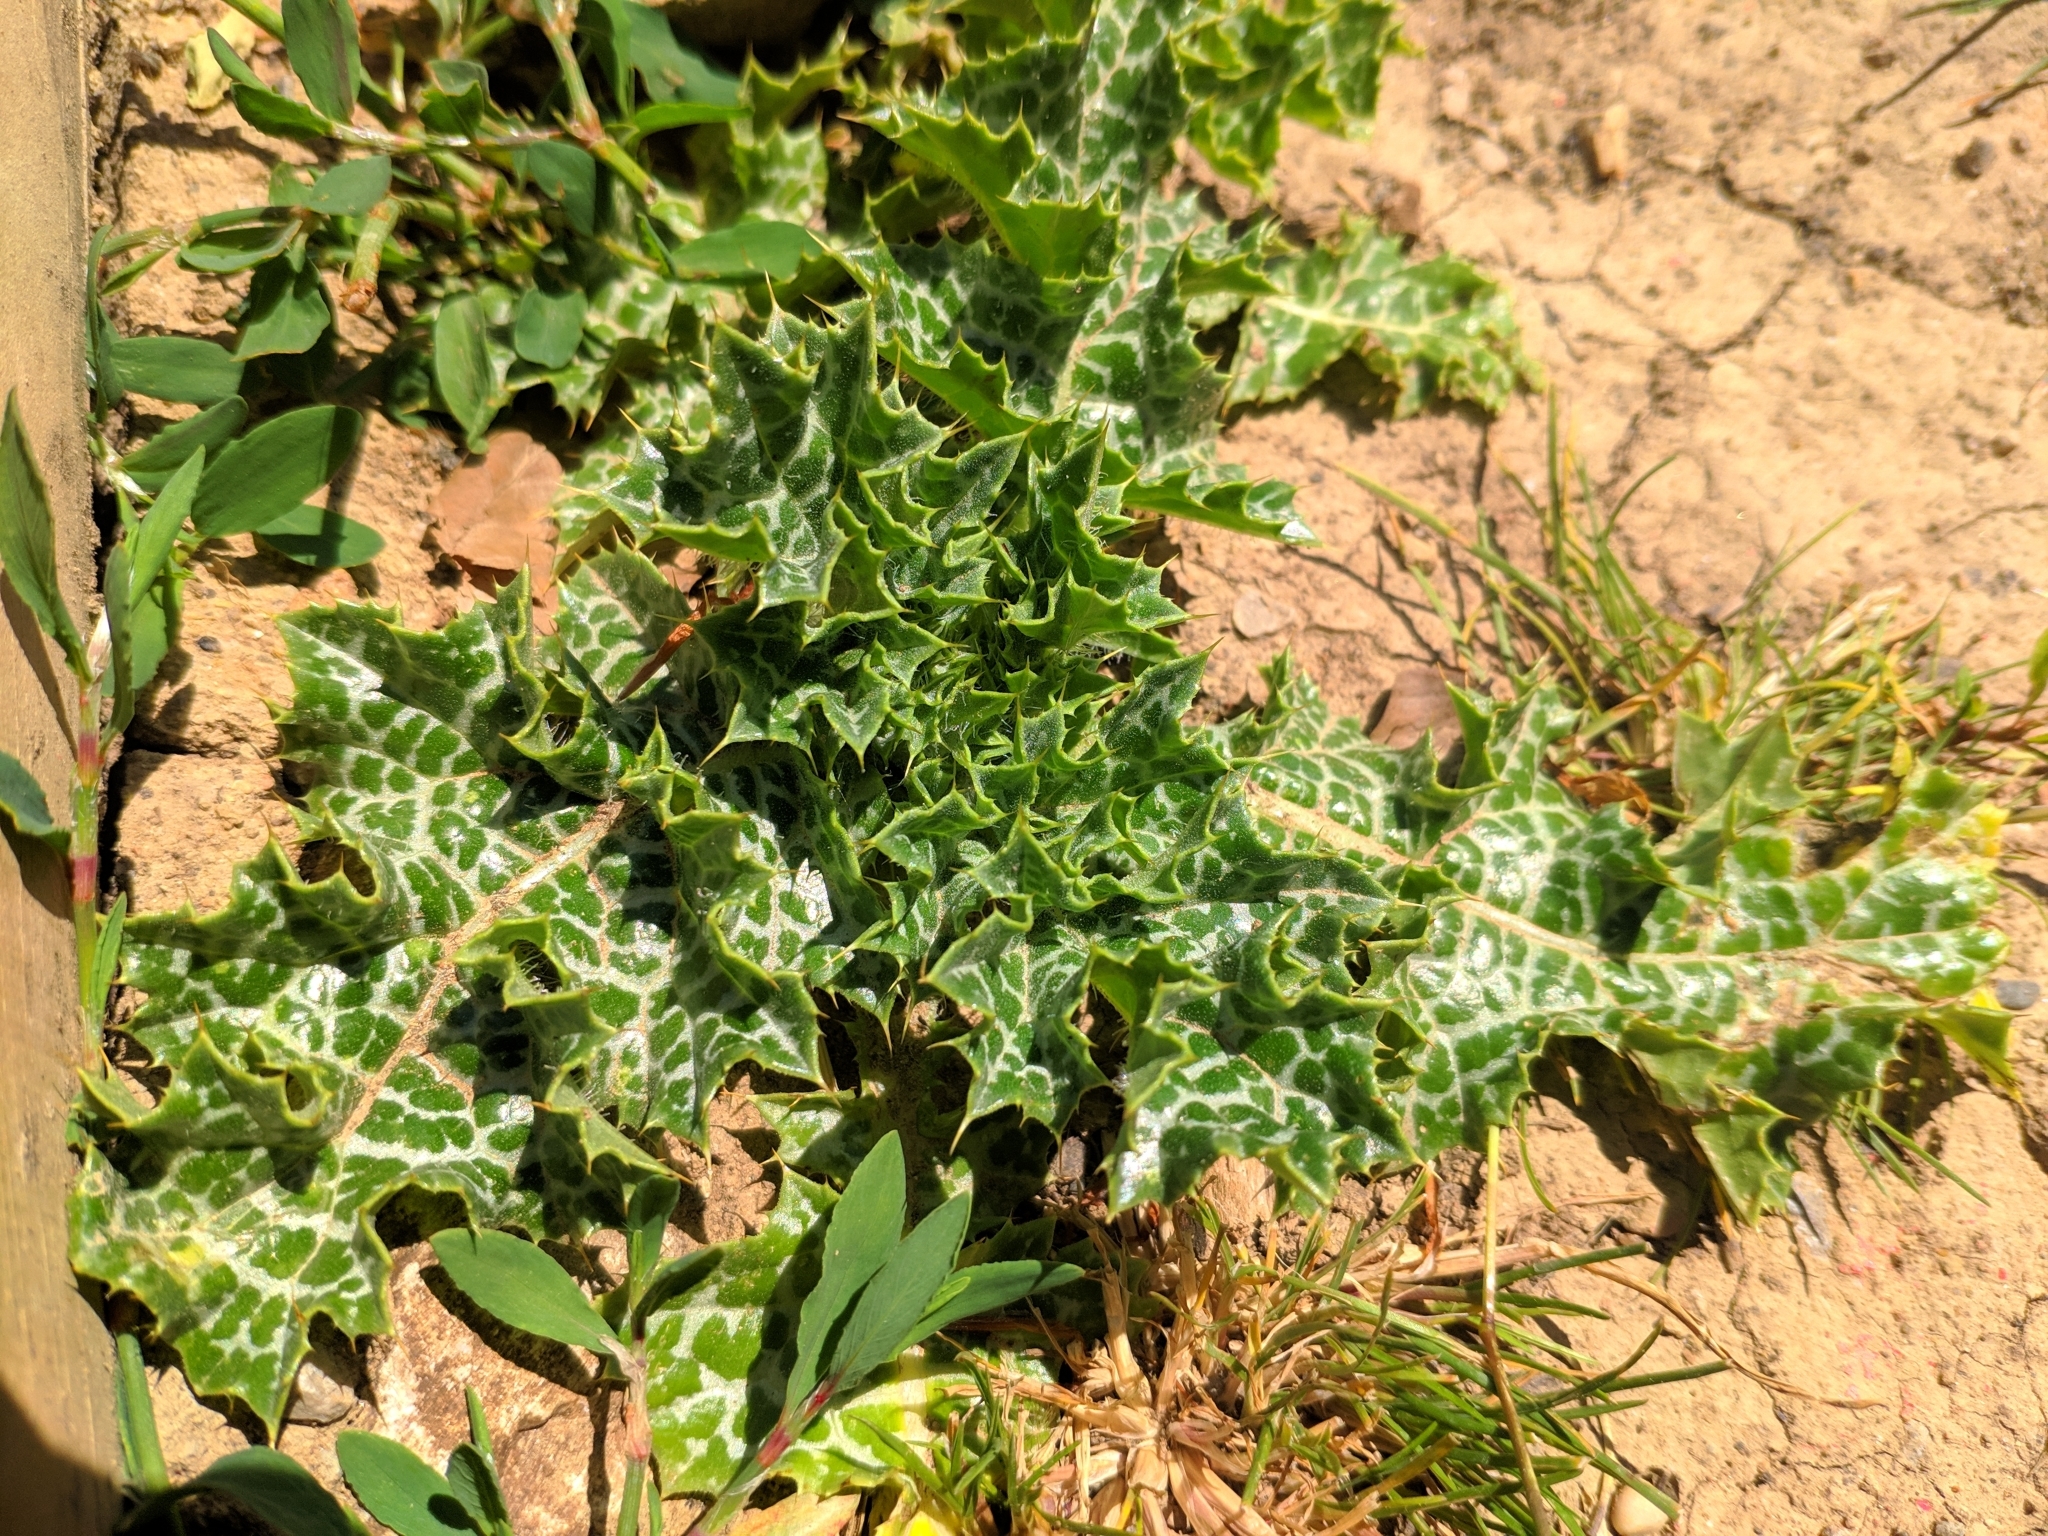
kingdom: Plantae
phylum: Tracheophyta
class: Magnoliopsida
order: Asterales
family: Asteraceae
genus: Silybum
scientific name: Silybum marianum
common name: Milk thistle
